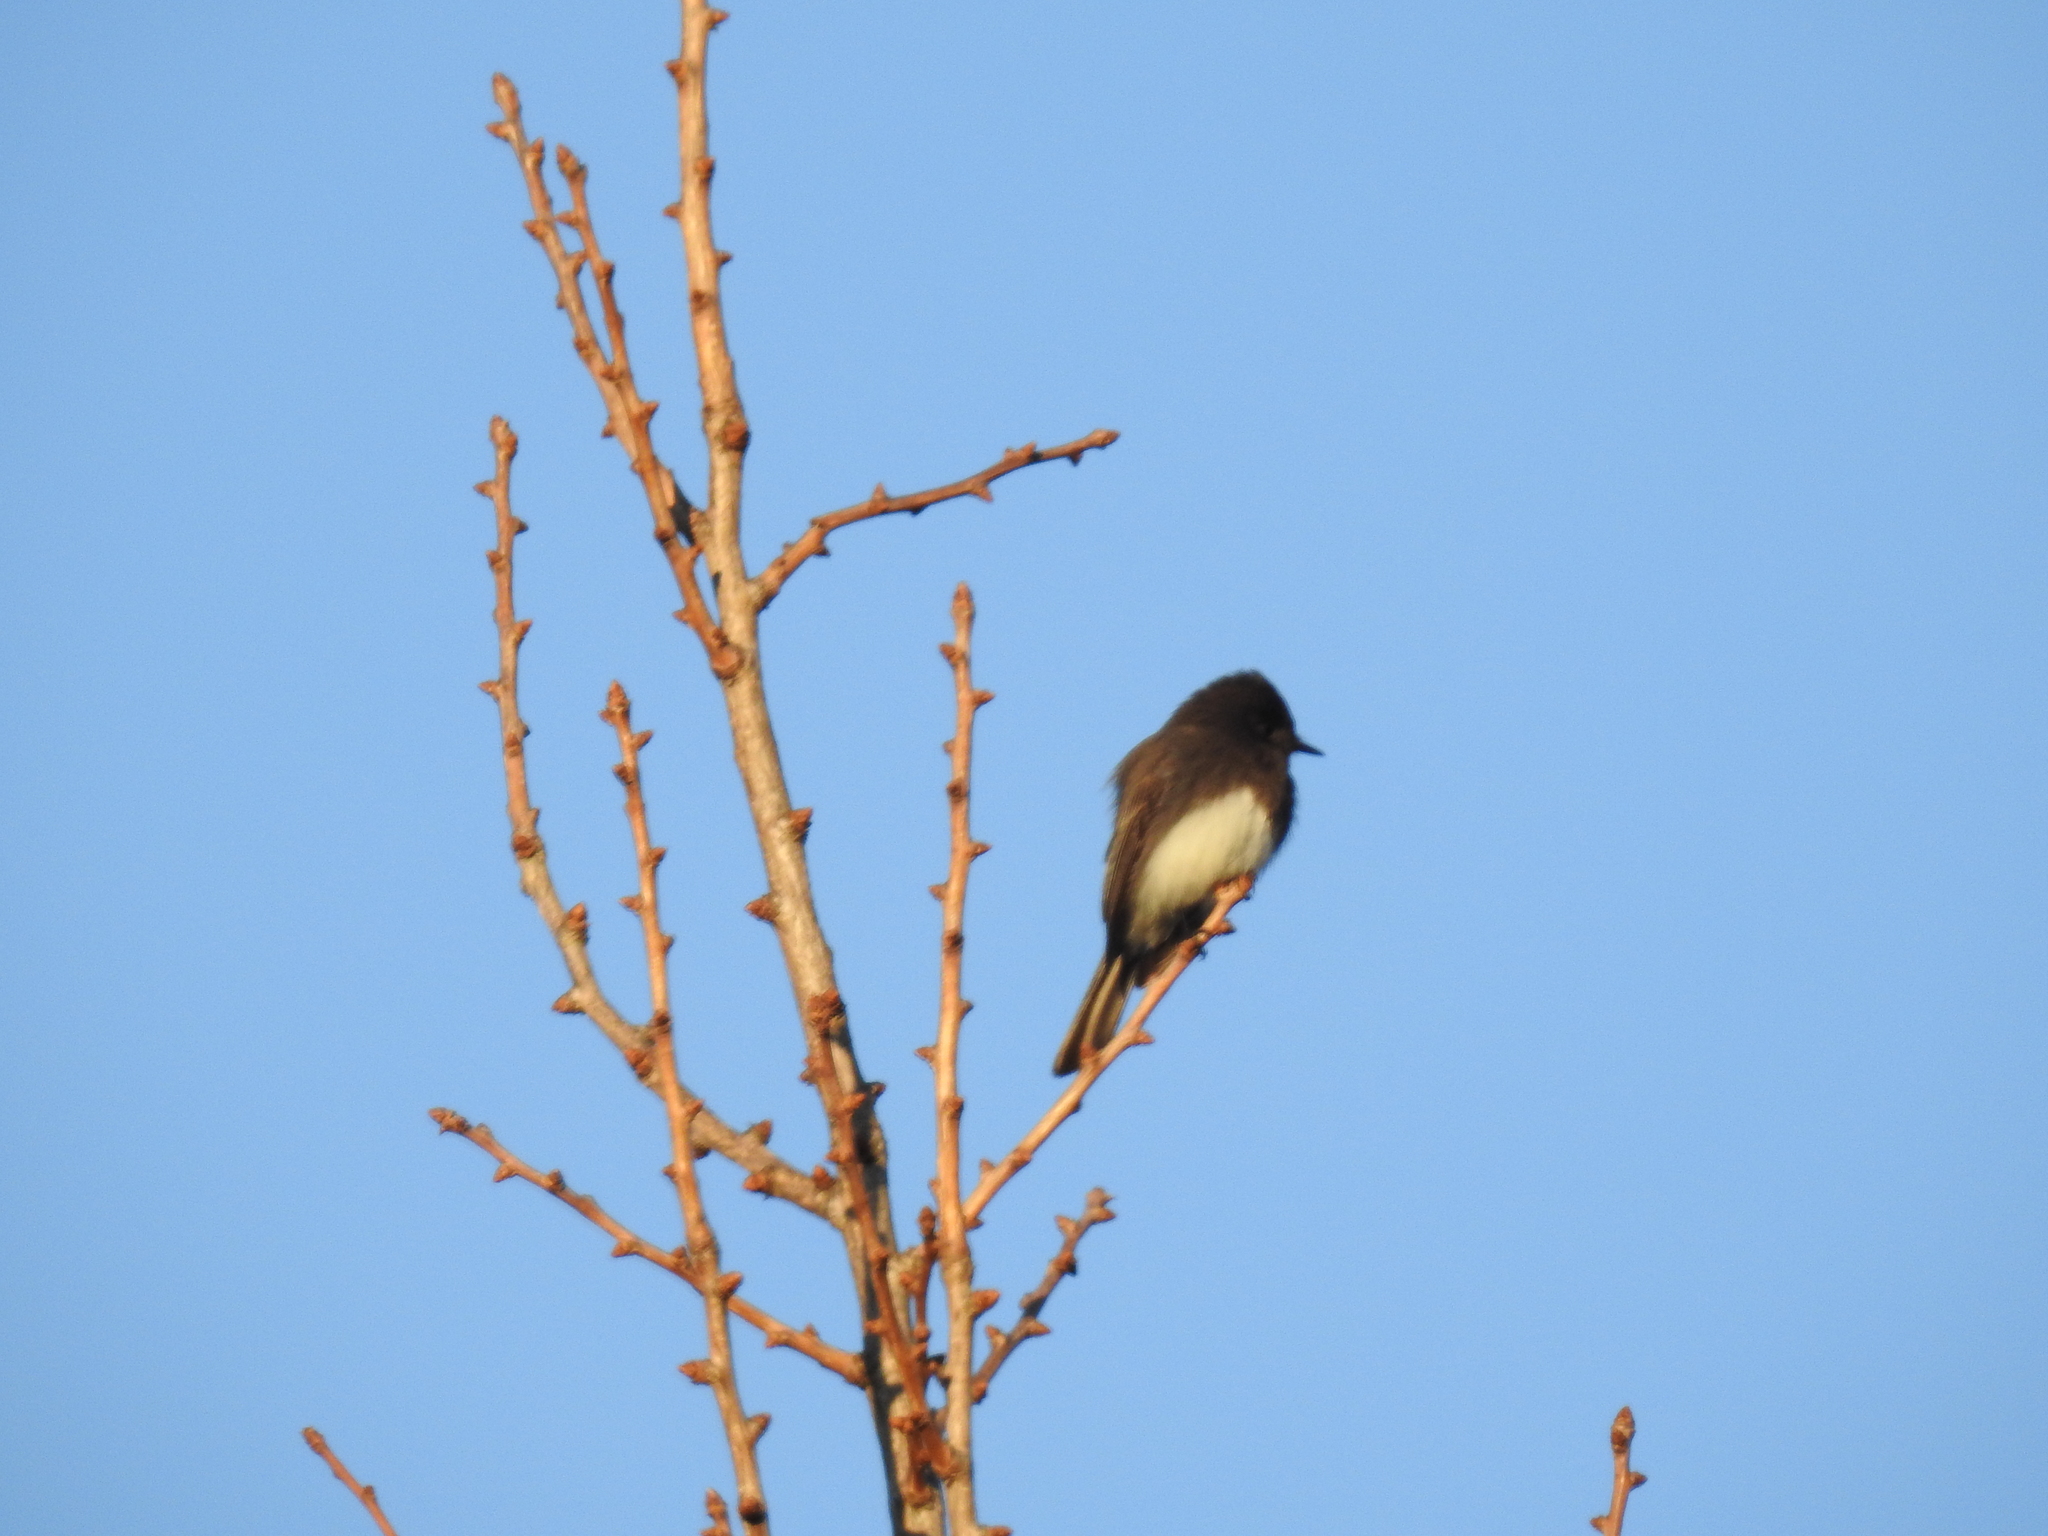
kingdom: Animalia
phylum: Chordata
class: Aves
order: Passeriformes
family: Tyrannidae
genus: Sayornis
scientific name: Sayornis nigricans
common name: Black phoebe
